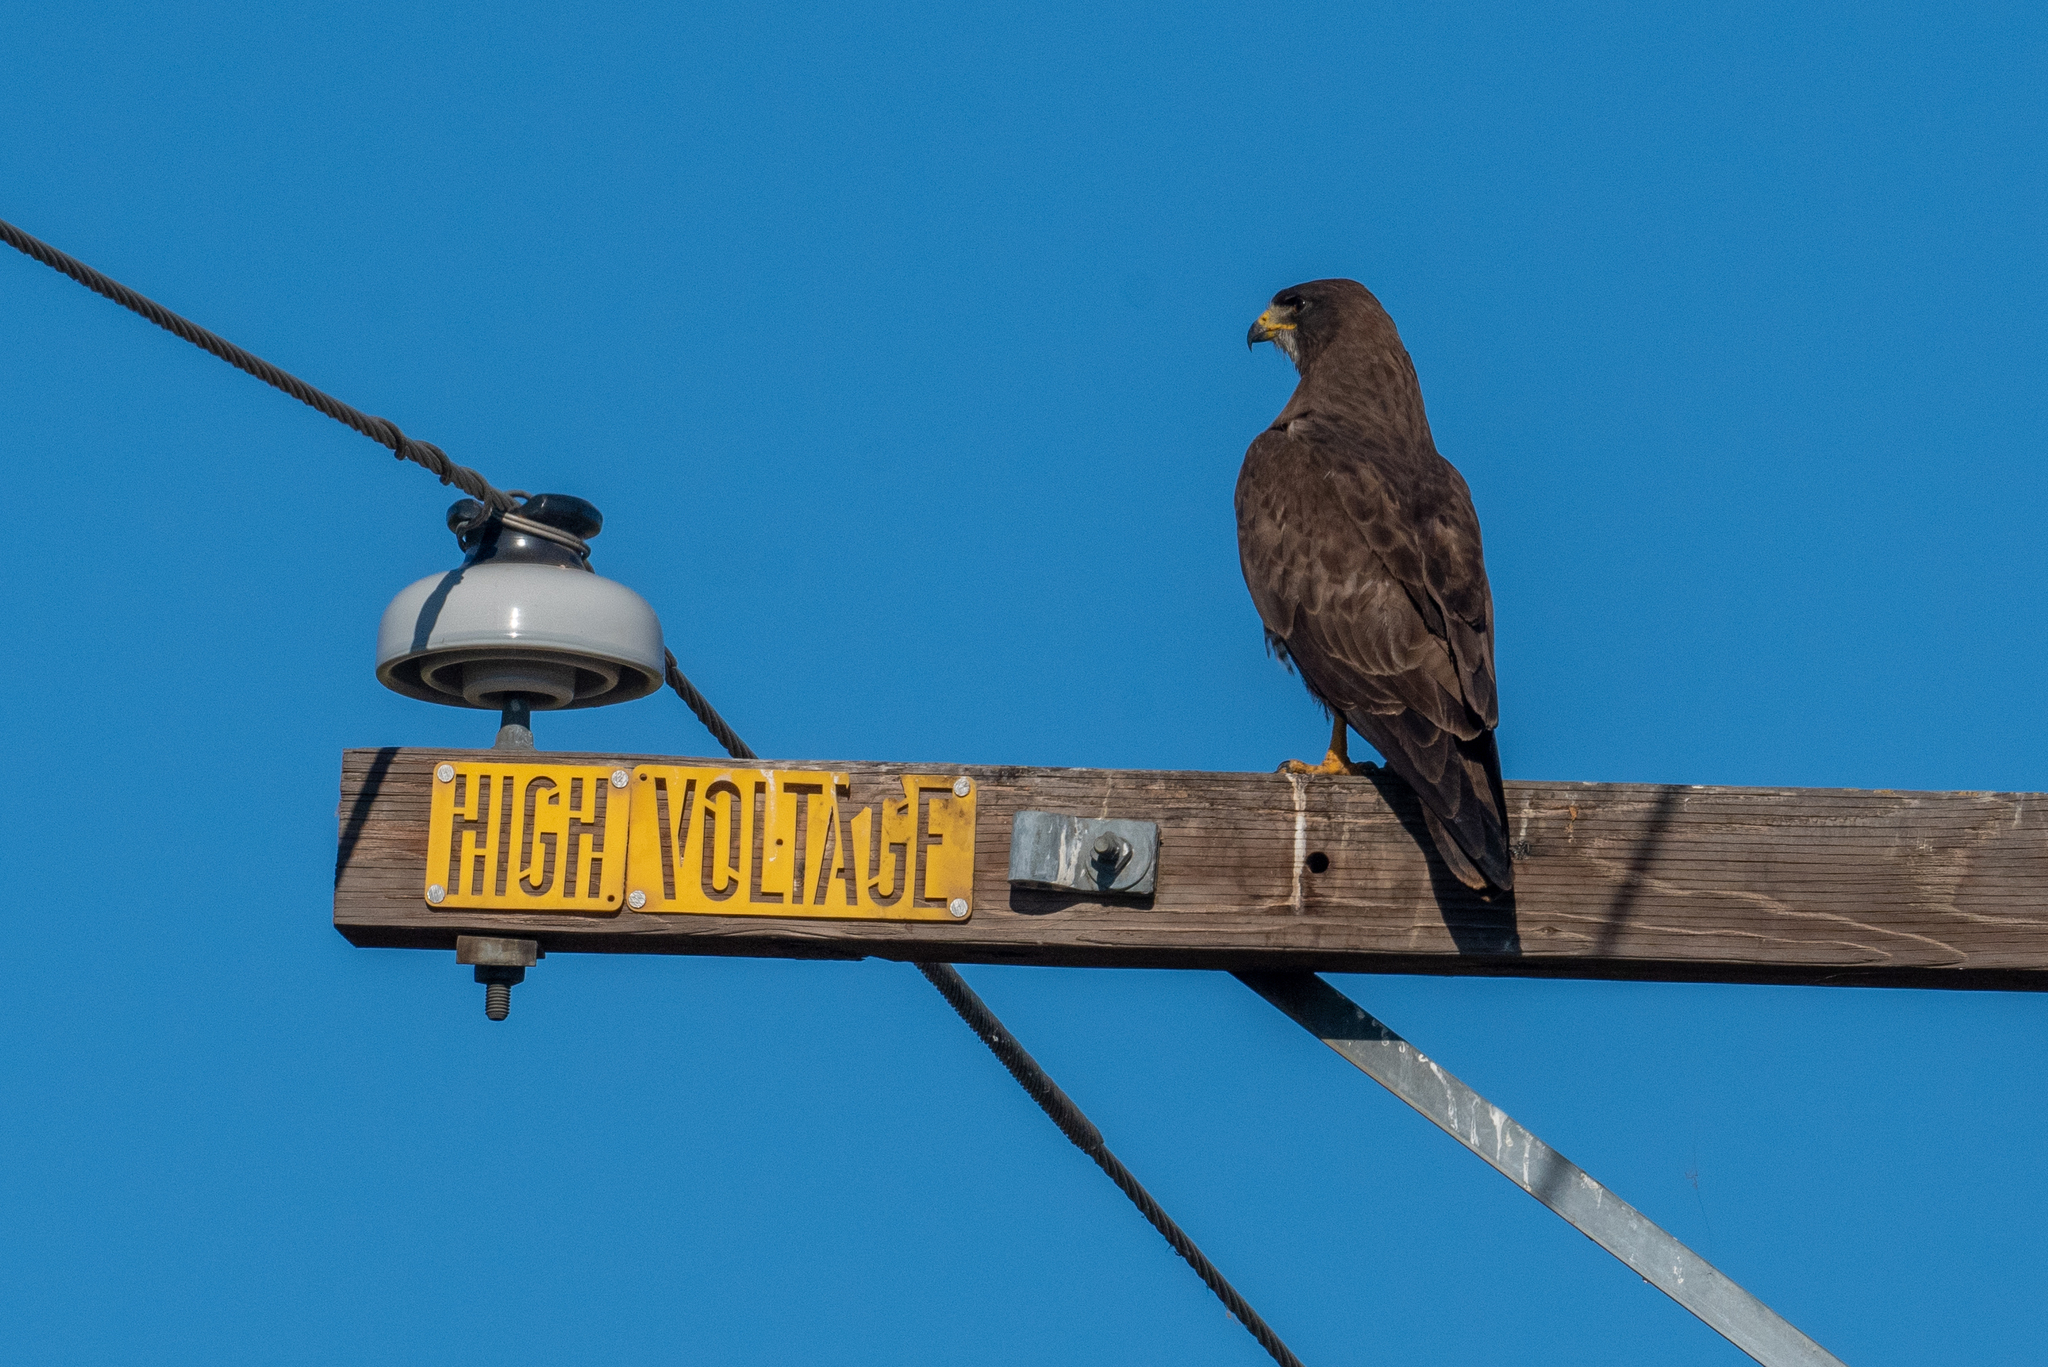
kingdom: Animalia
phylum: Chordata
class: Aves
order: Accipitriformes
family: Accipitridae
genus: Buteo
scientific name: Buteo swainsoni
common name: Swainson's hawk
